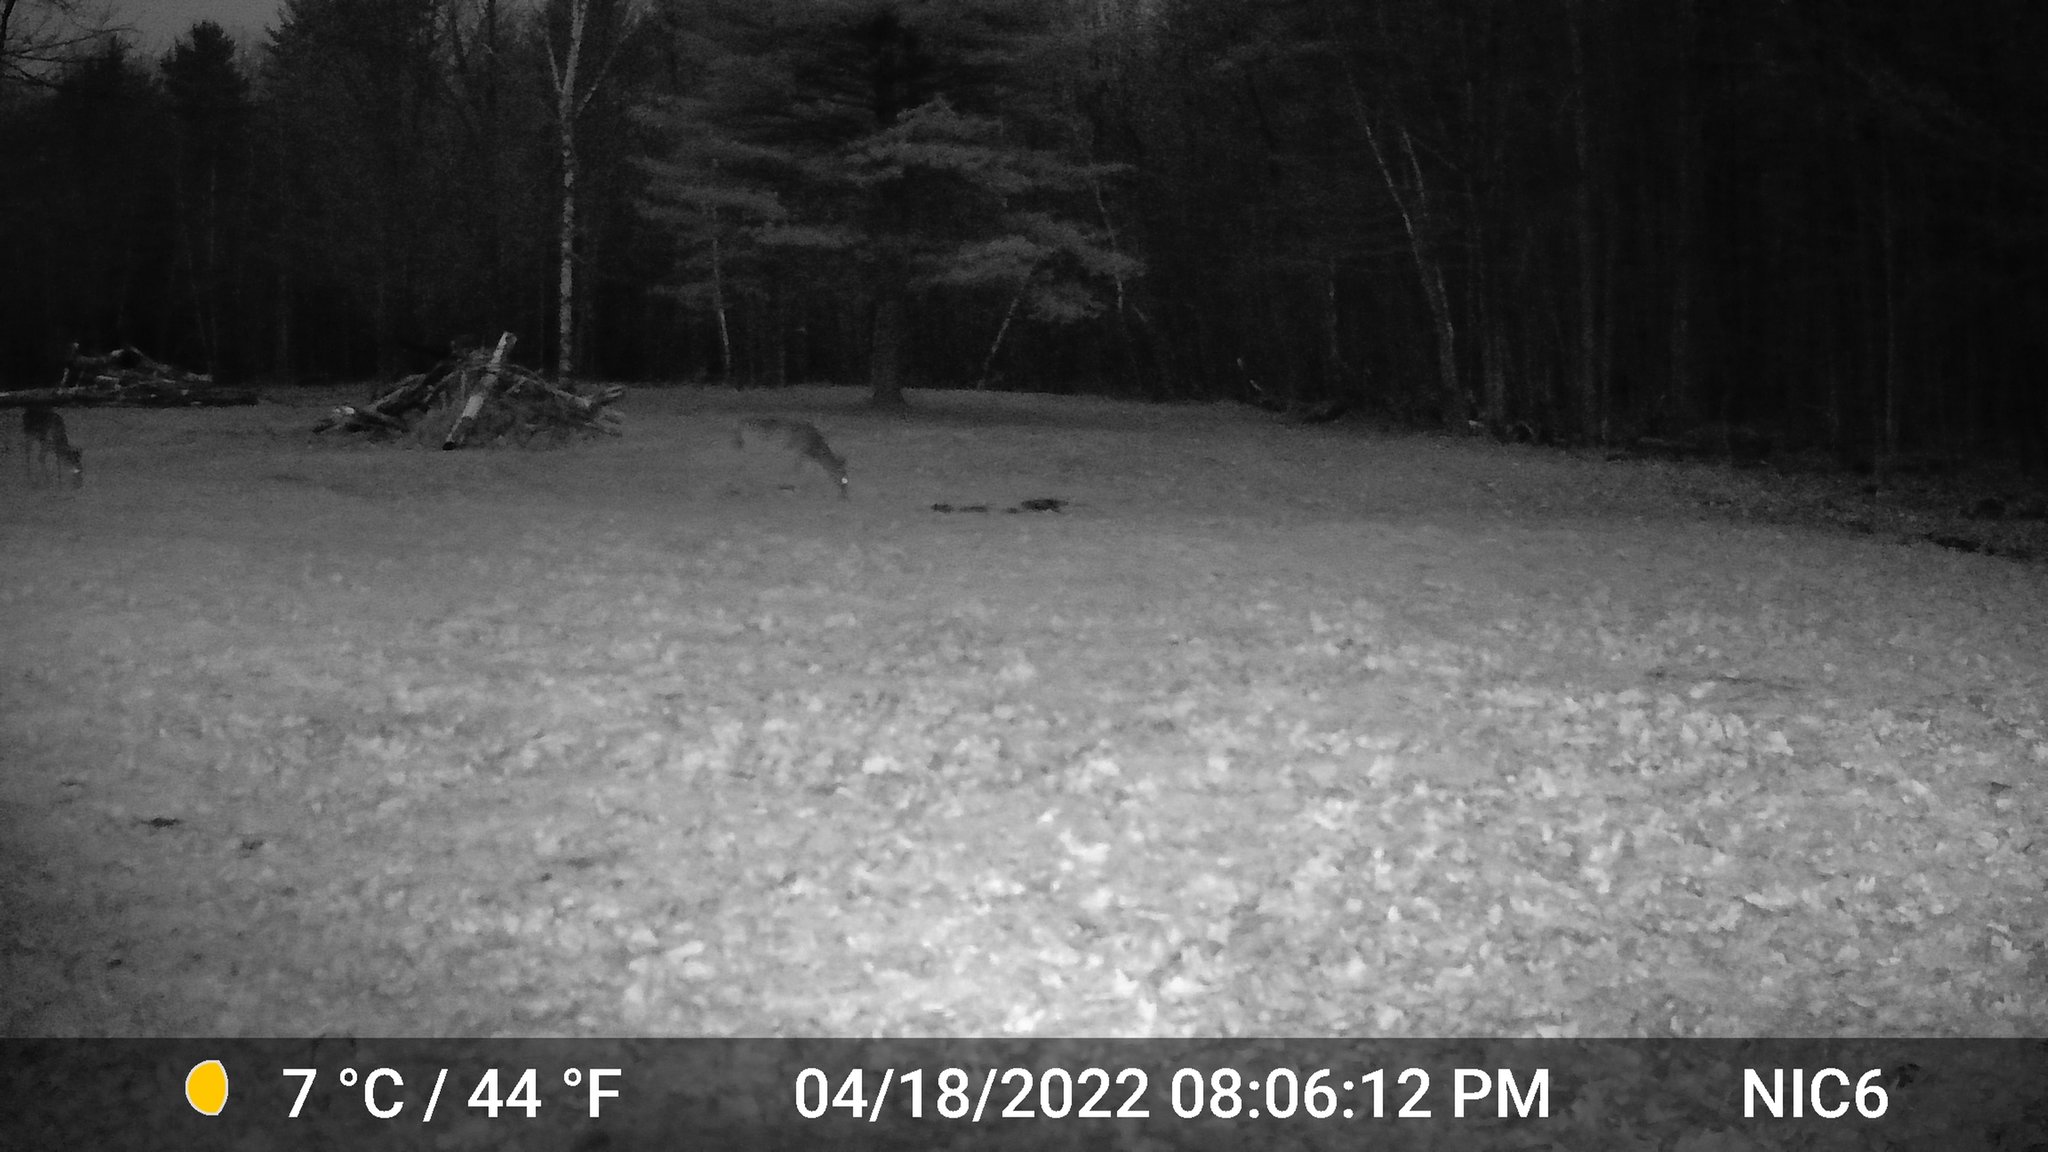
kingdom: Animalia
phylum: Chordata
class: Mammalia
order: Artiodactyla
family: Cervidae
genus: Odocoileus
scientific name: Odocoileus virginianus
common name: White-tailed deer
